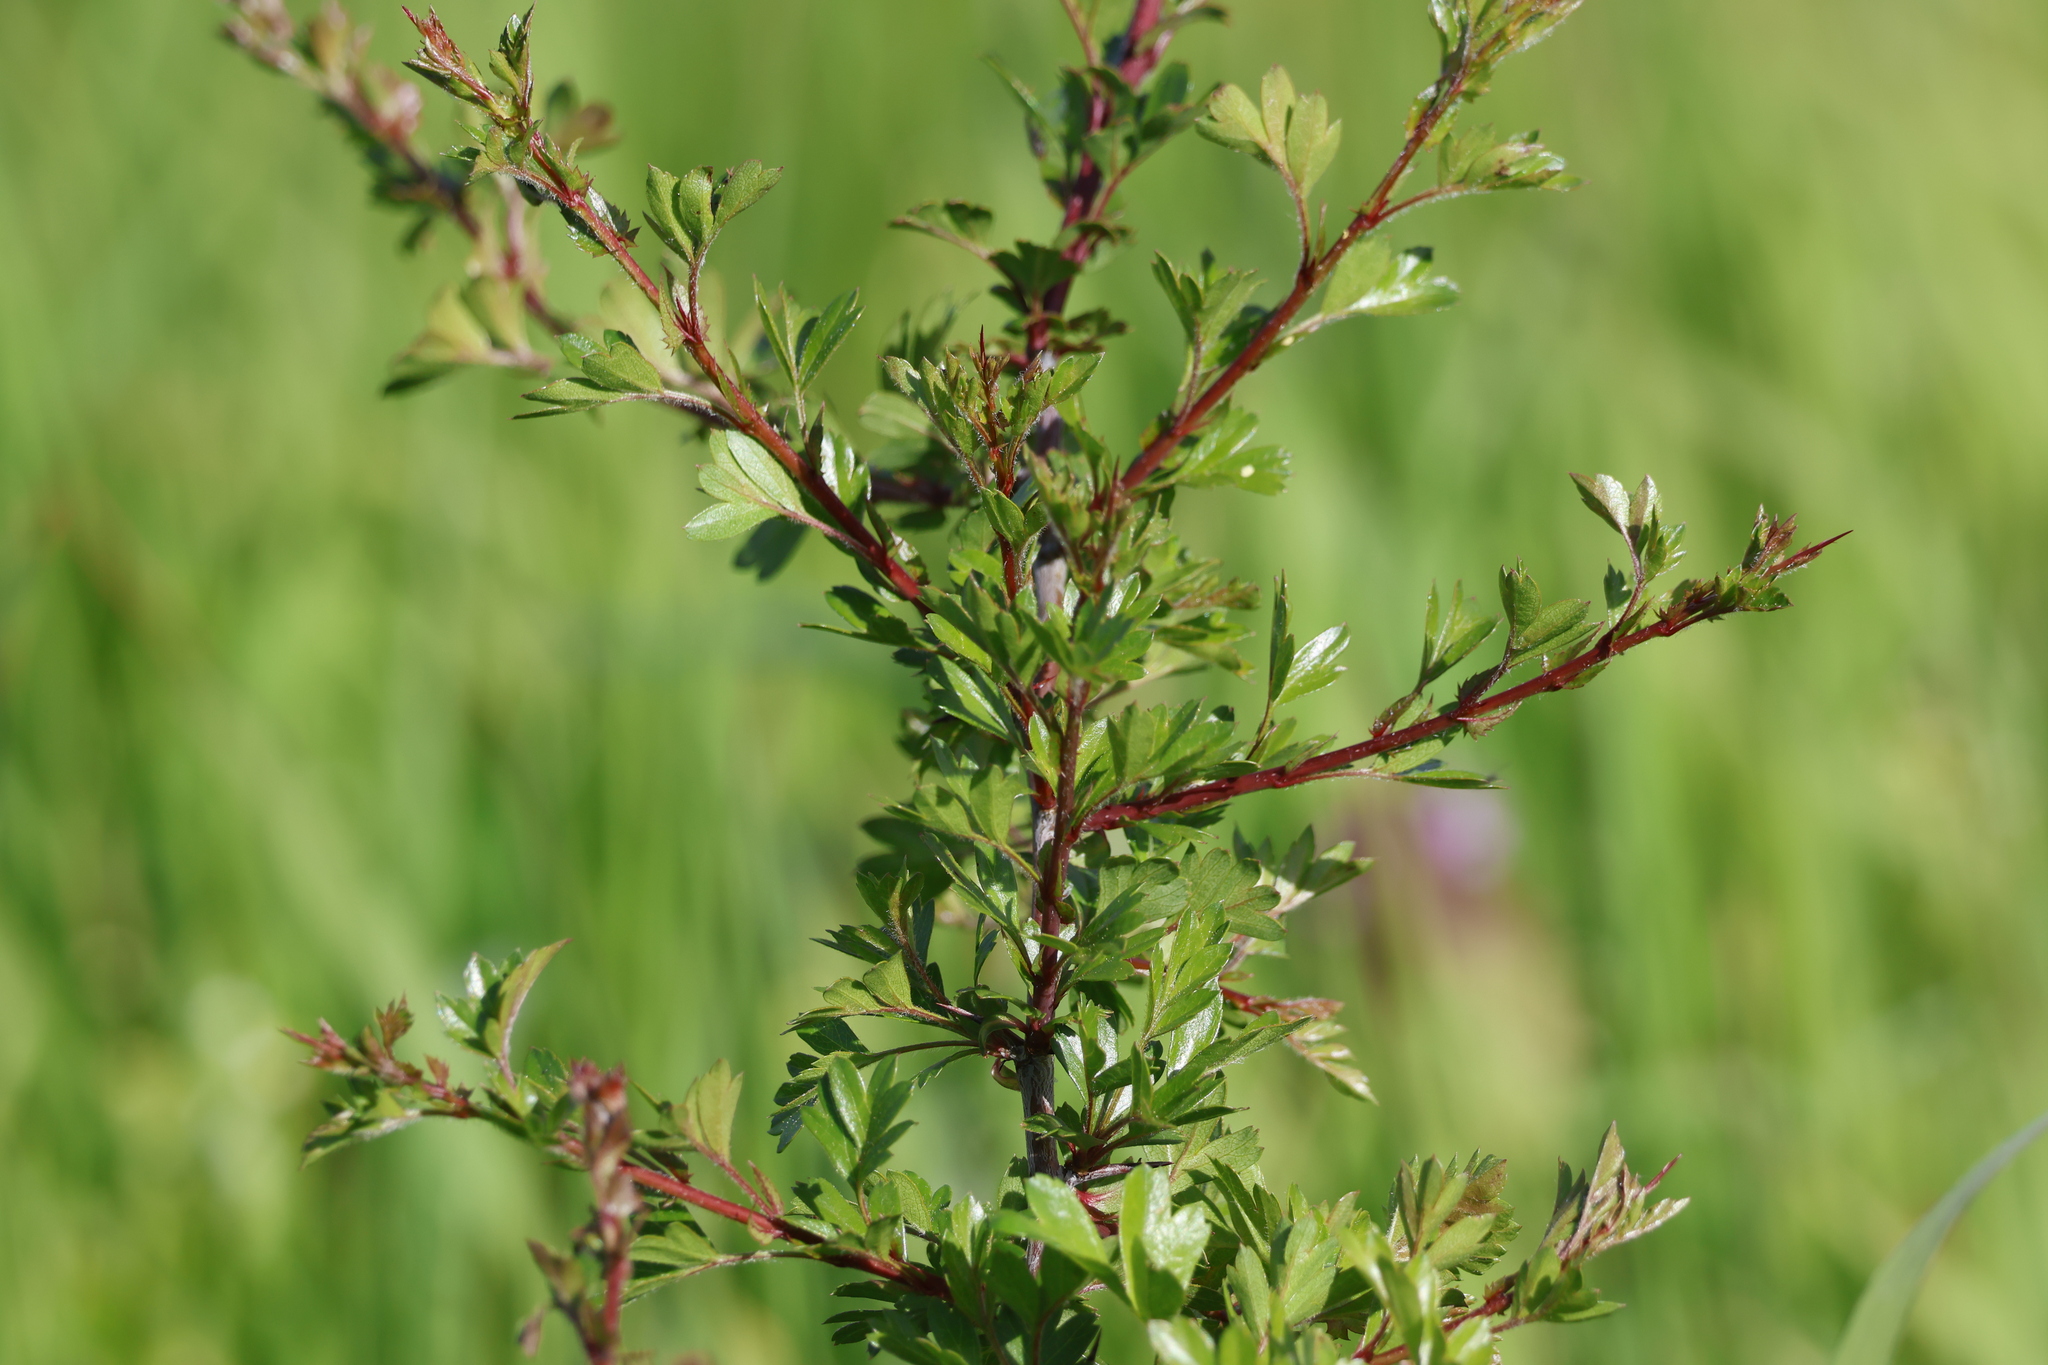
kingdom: Plantae
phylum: Tracheophyta
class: Magnoliopsida
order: Rosales
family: Rosaceae
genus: Crataegus
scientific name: Crataegus monogyna
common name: Hawthorn
